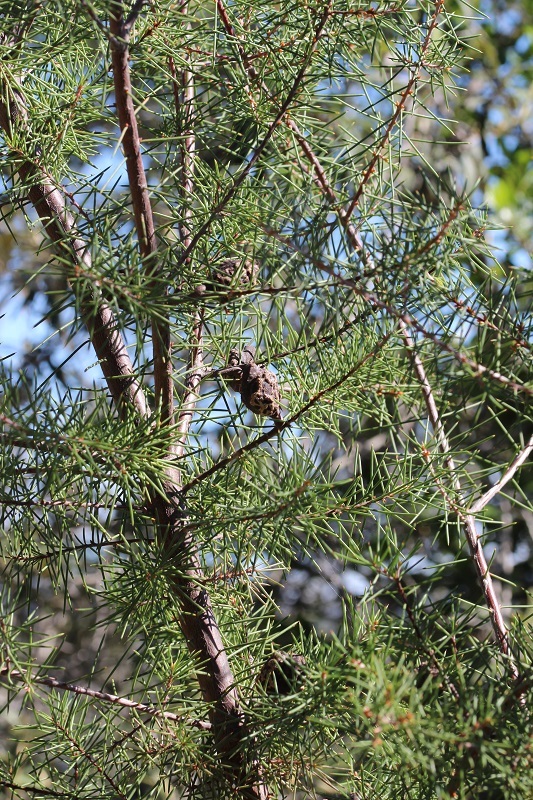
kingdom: Plantae
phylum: Tracheophyta
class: Magnoliopsida
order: Proteales
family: Proteaceae
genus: Hakea
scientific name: Hakea sericea
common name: Needle bush
